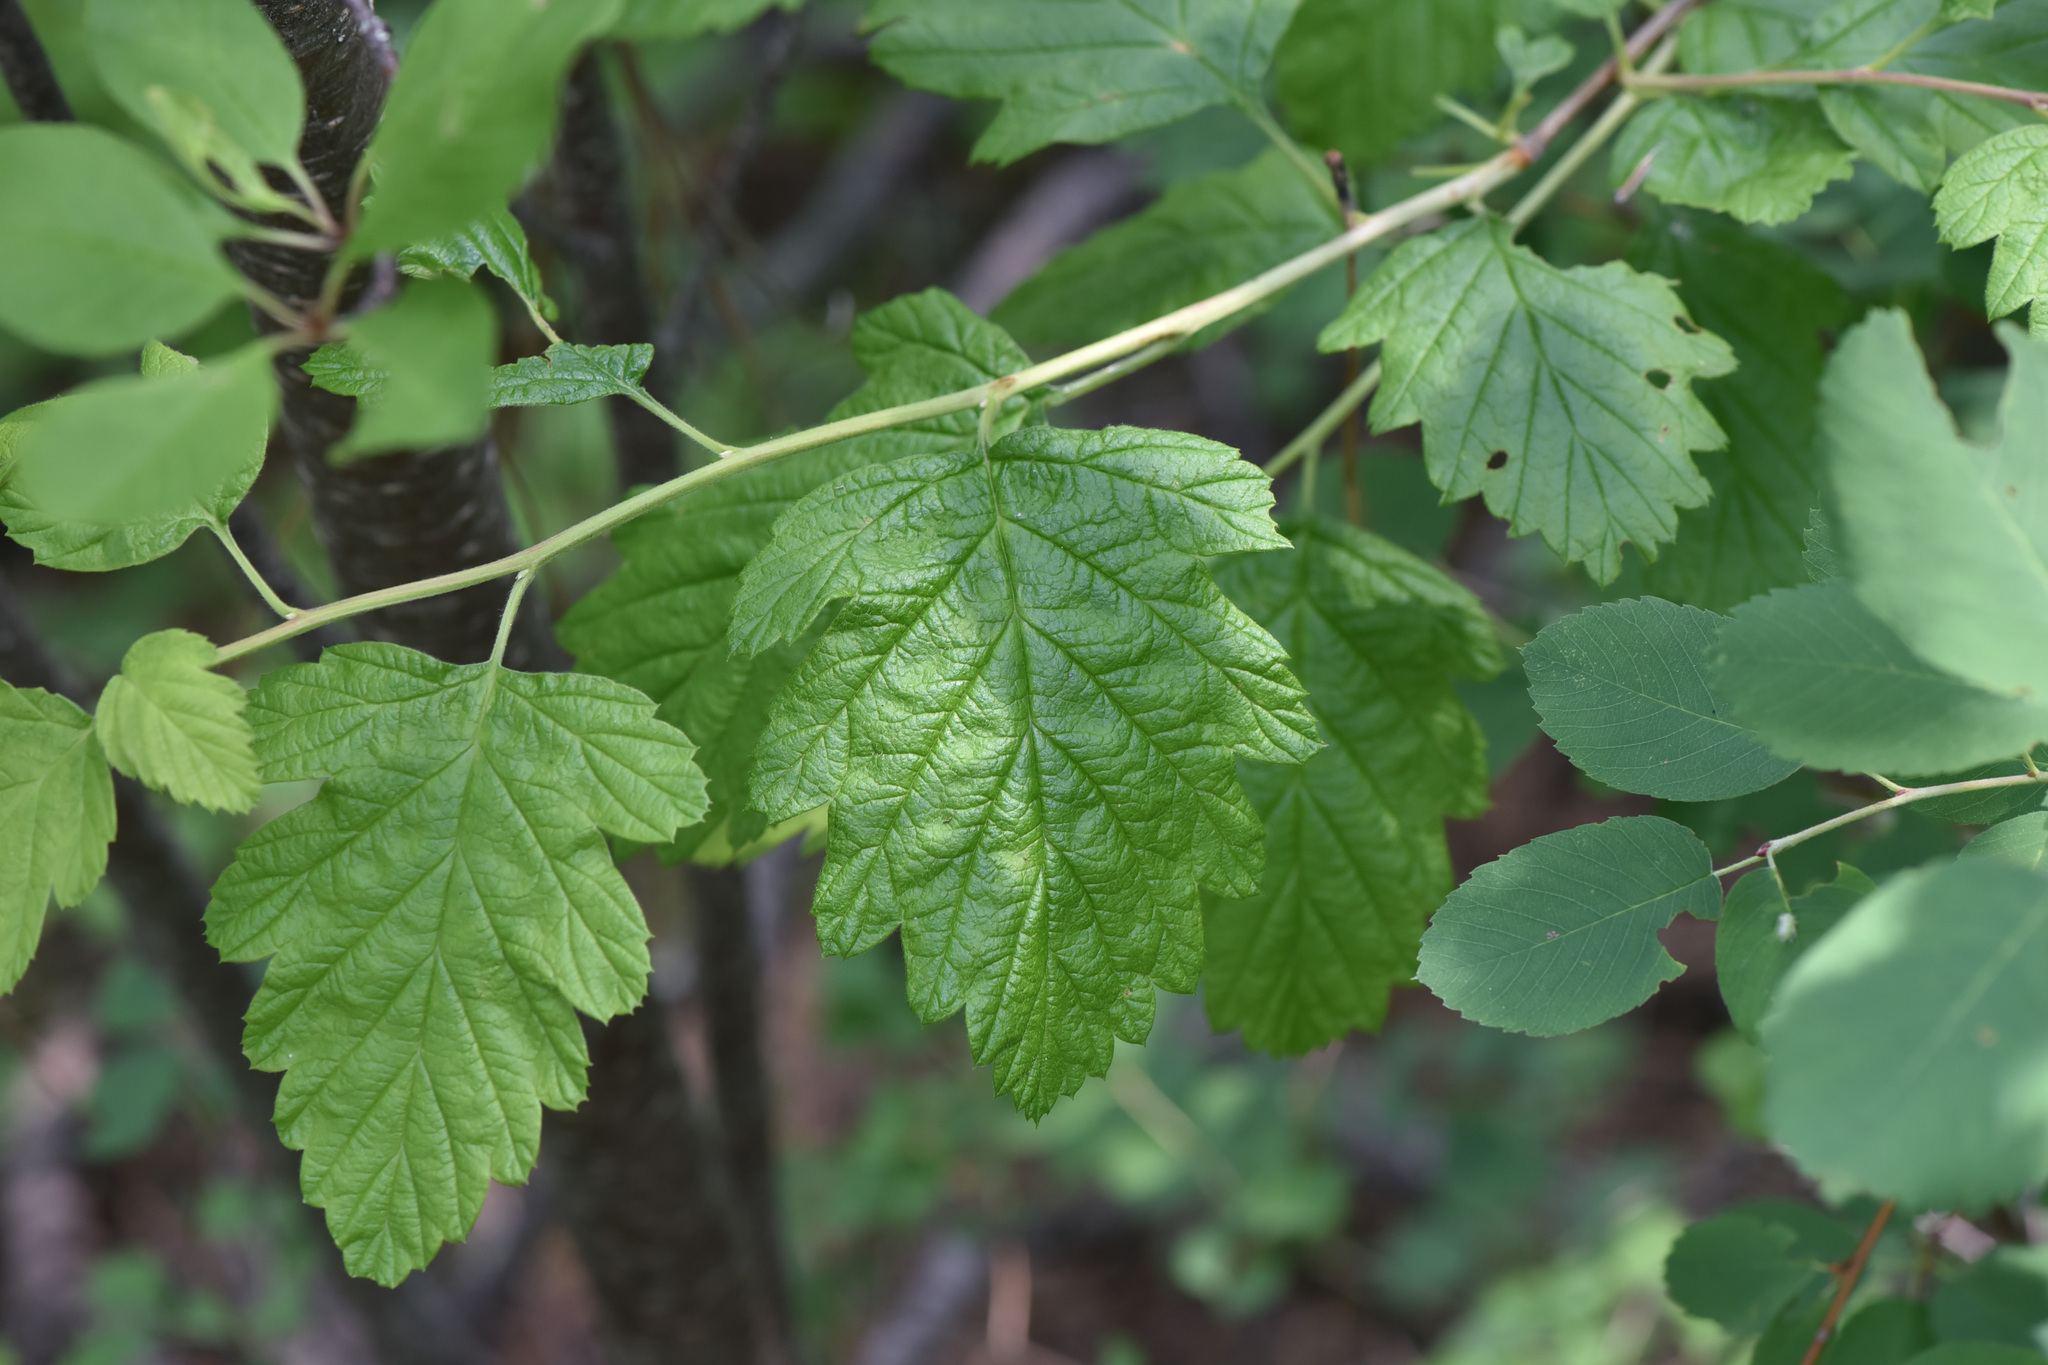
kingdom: Plantae
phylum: Tracheophyta
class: Magnoliopsida
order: Rosales
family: Rosaceae
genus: Holodiscus
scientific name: Holodiscus discolor
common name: Oceanspray
